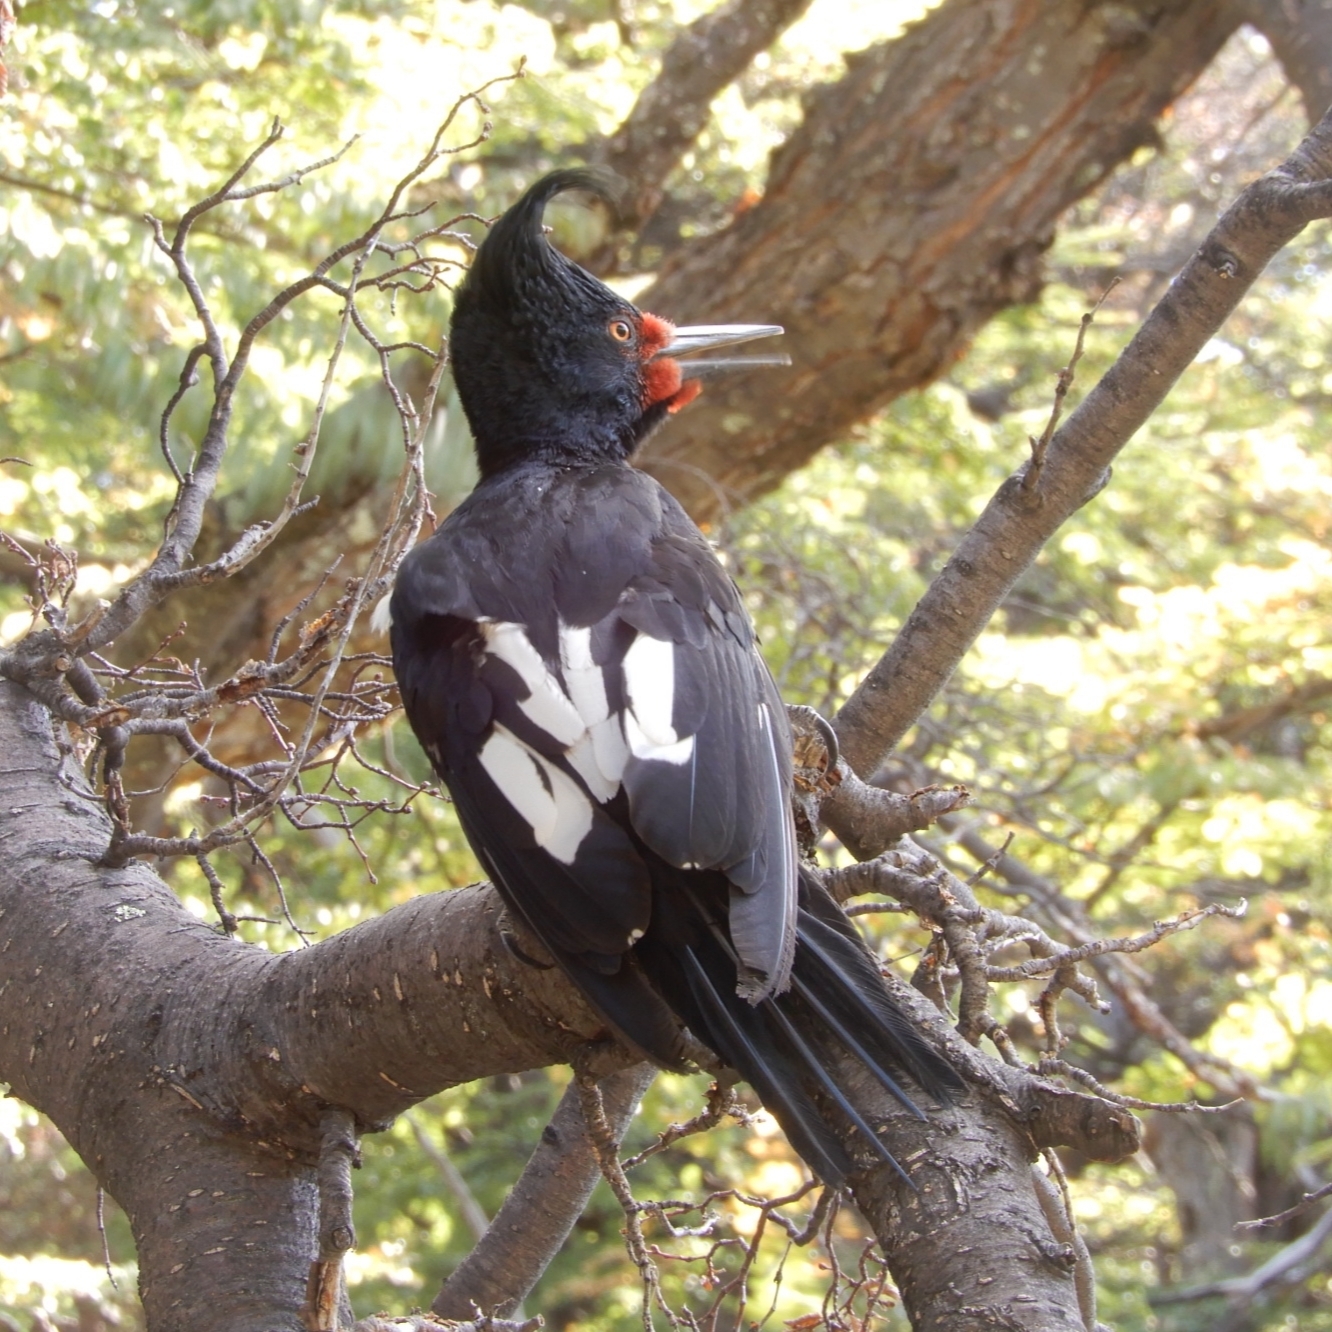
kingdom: Animalia
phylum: Chordata
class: Aves
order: Piciformes
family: Picidae
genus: Campephilus
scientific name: Campephilus magellanicus
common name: Magellanic woodpecker
